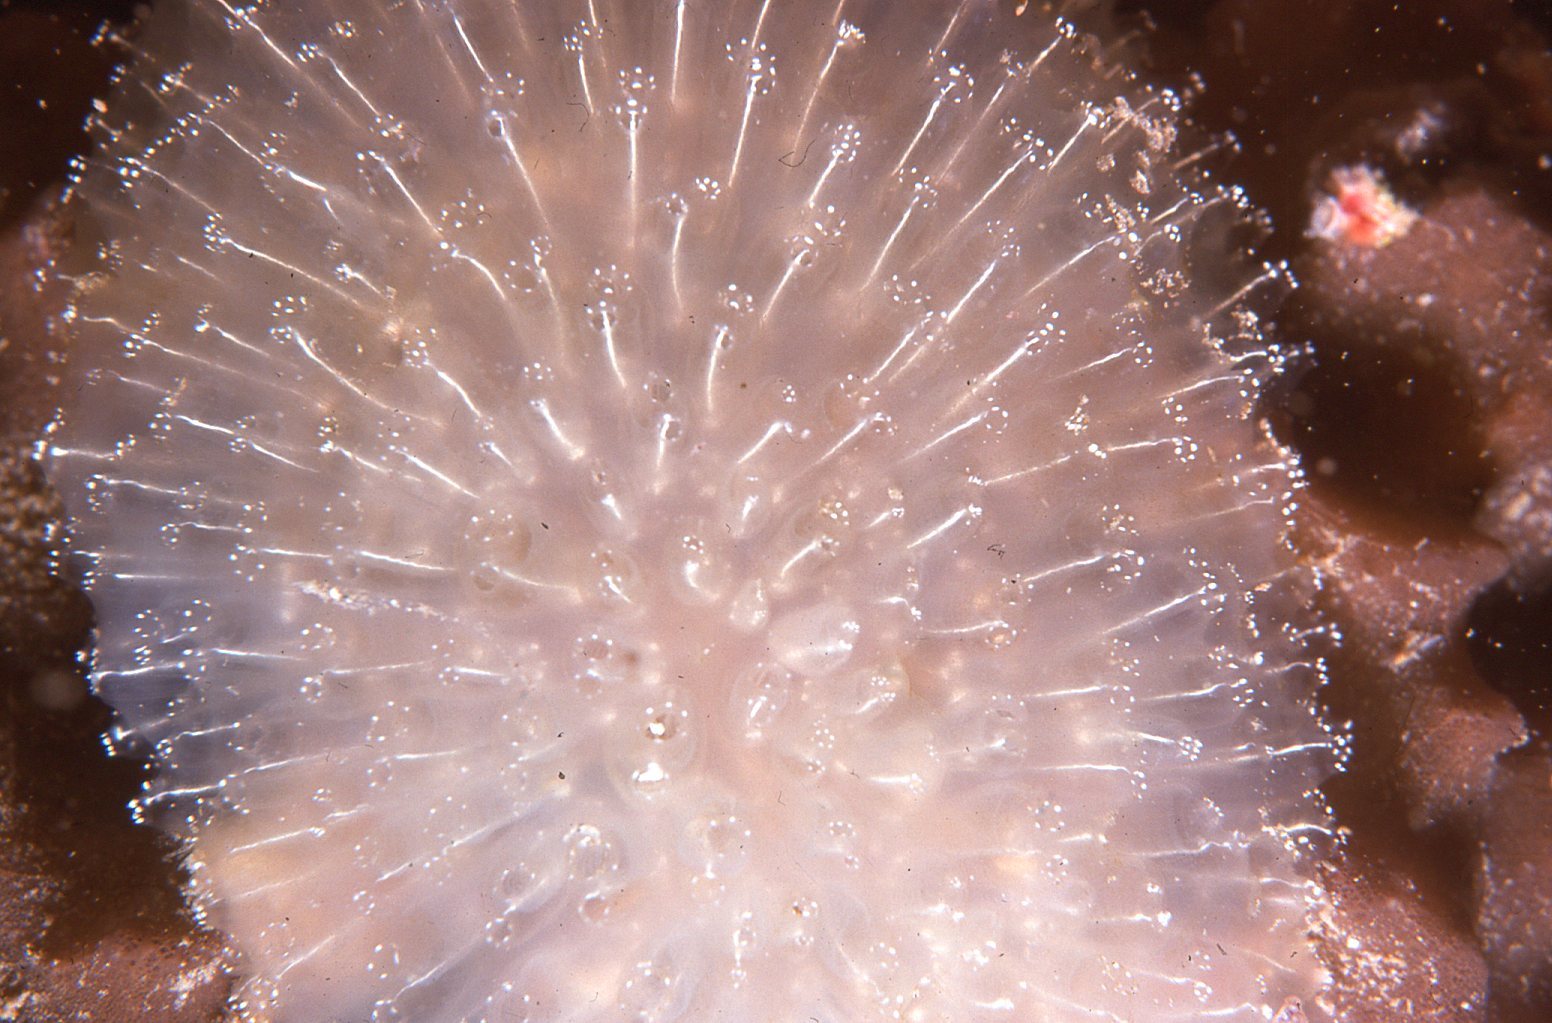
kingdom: Animalia
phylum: Chordata
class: Ascidiacea
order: Aplousobranchia
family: Pseudodistomidae
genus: Pseudodistoma
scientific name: Pseudodistoma fragile
